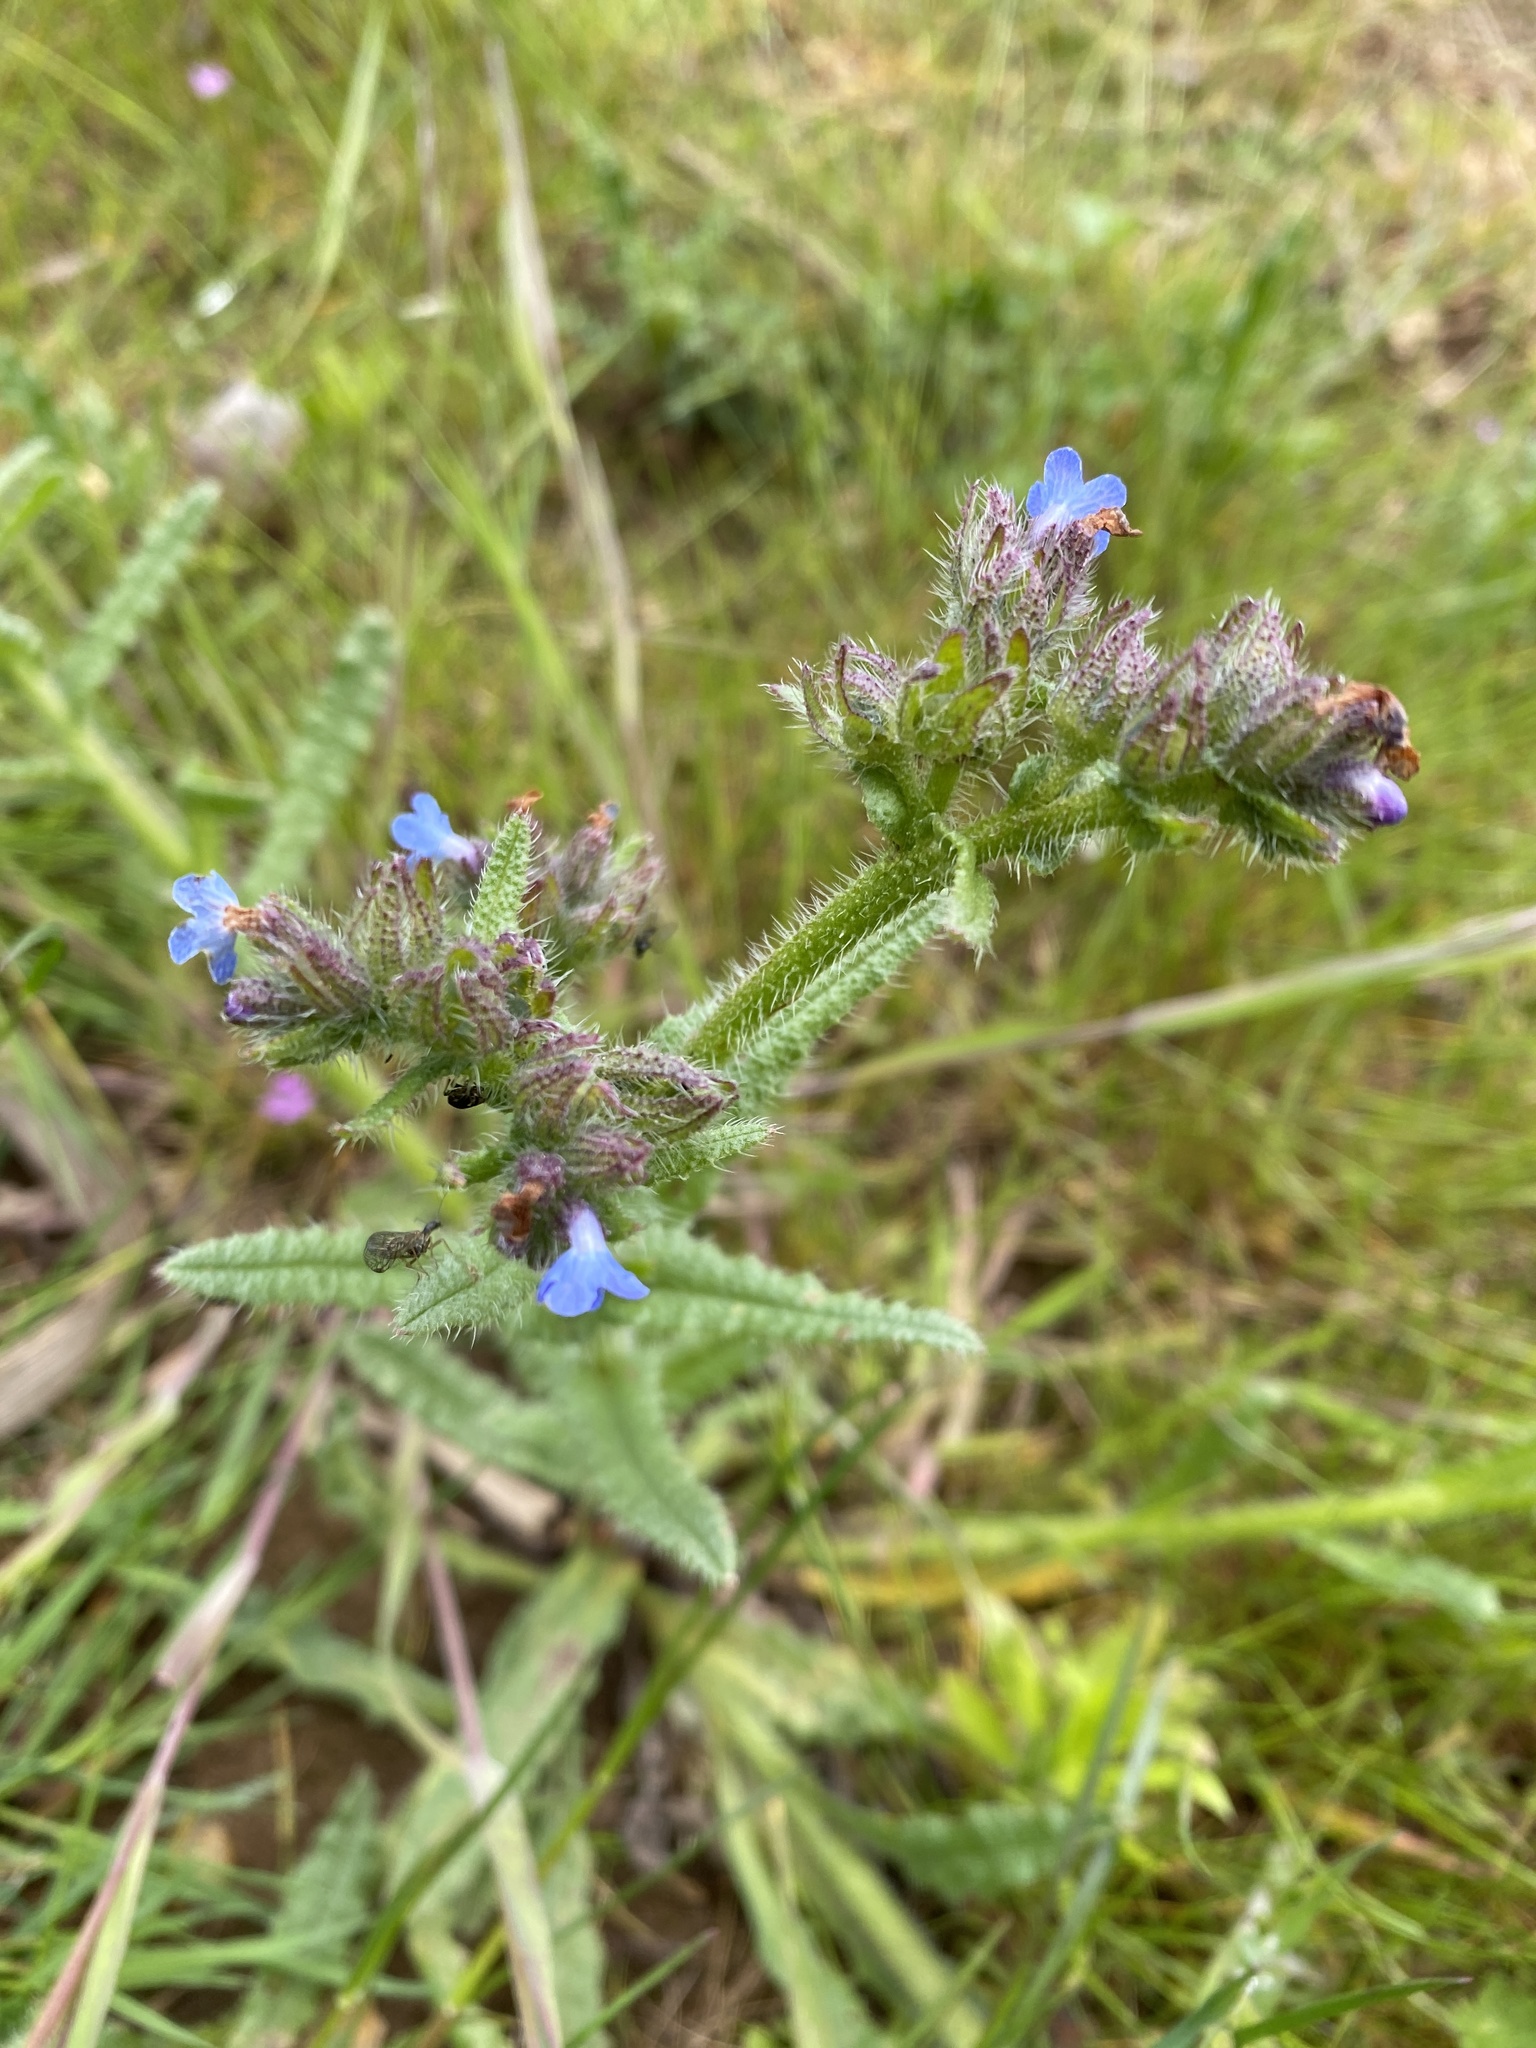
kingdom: Plantae
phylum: Tracheophyta
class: Magnoliopsida
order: Boraginales
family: Boraginaceae
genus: Lycopsis
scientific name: Lycopsis arvensis
